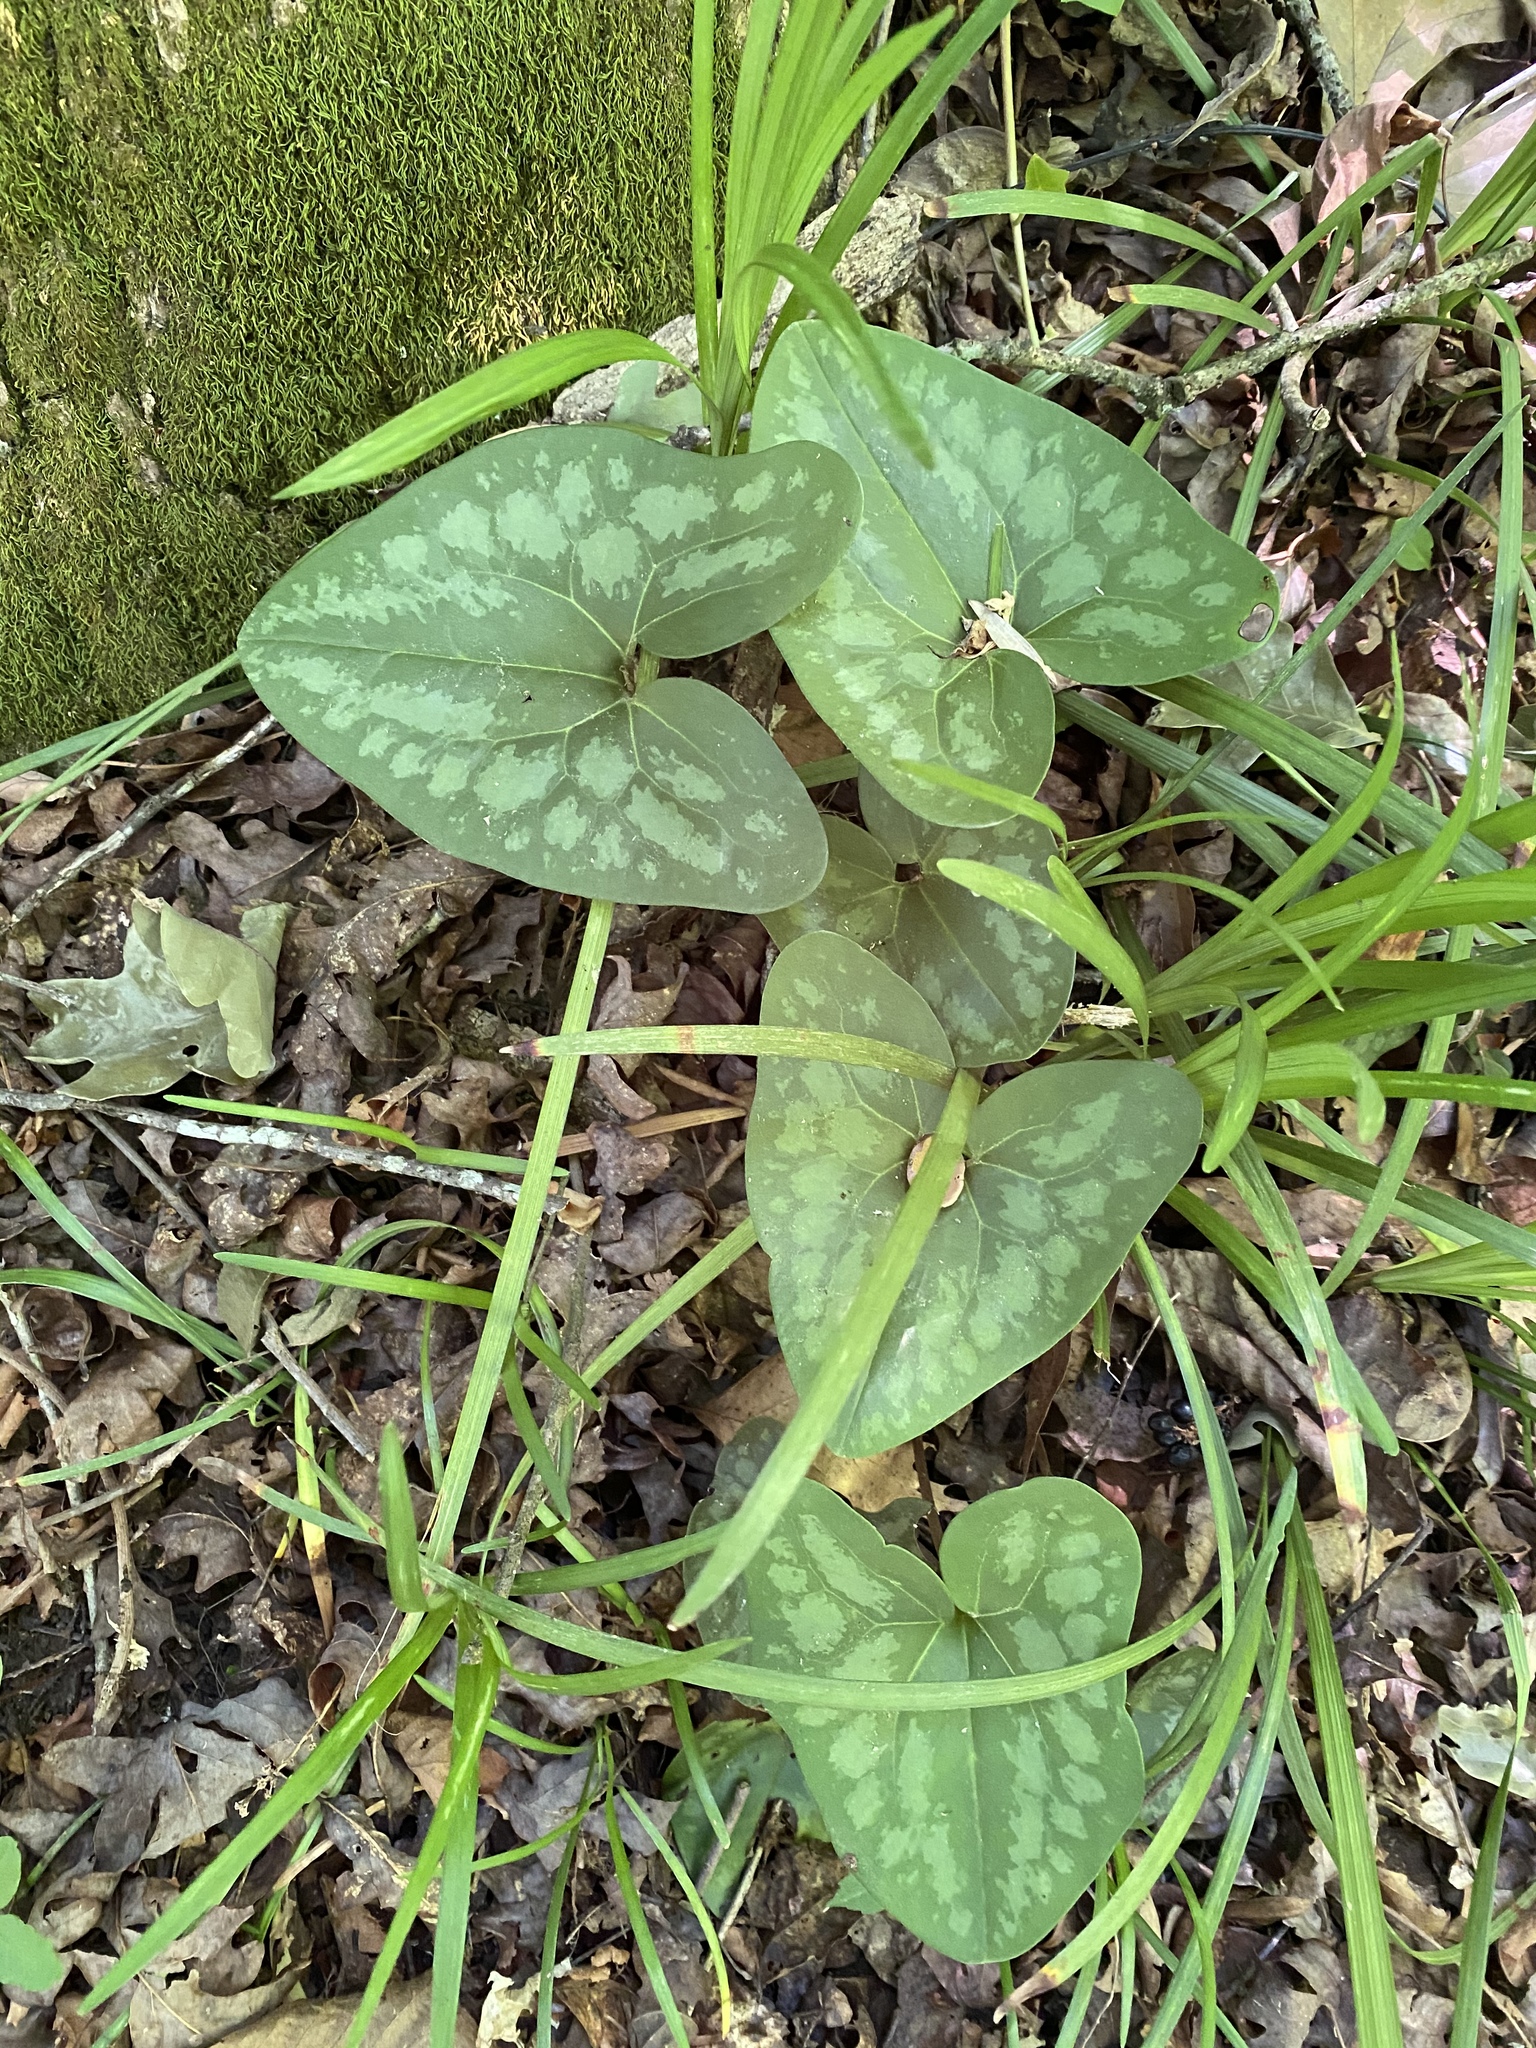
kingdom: Plantae
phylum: Tracheophyta
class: Magnoliopsida
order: Piperales
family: Aristolochiaceae
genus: Hexastylis
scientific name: Hexastylis arifolia
